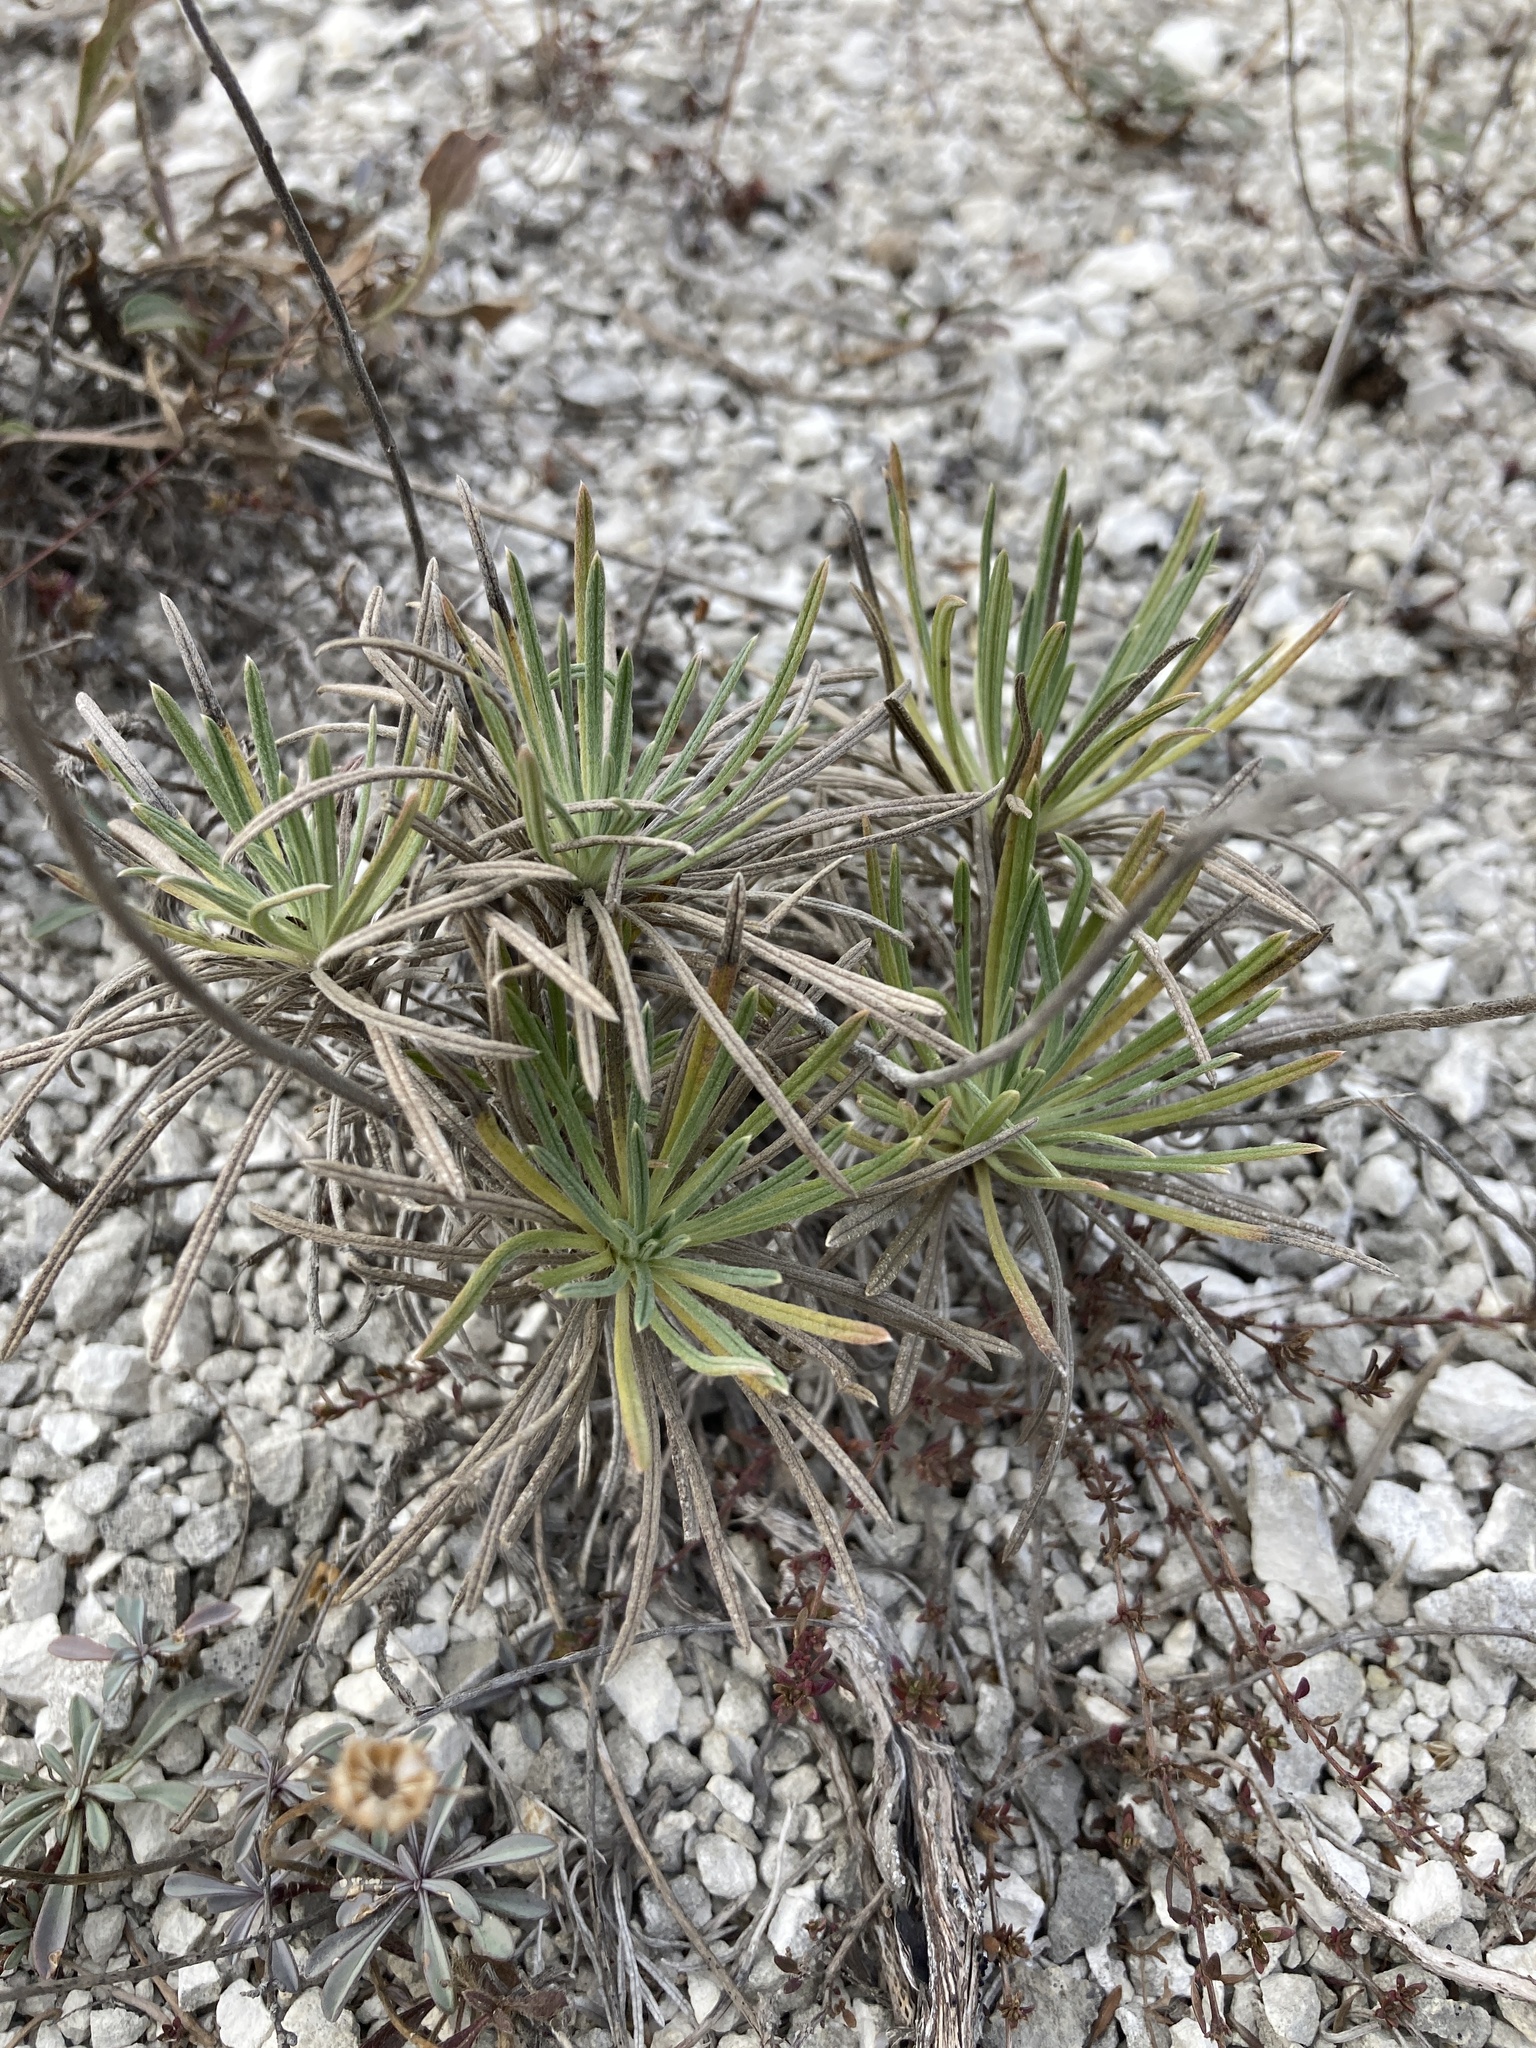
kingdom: Plantae
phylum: Tracheophyta
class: Magnoliopsida
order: Boraginales
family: Boraginaceae
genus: Onosma
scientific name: Onosma simplicissima
